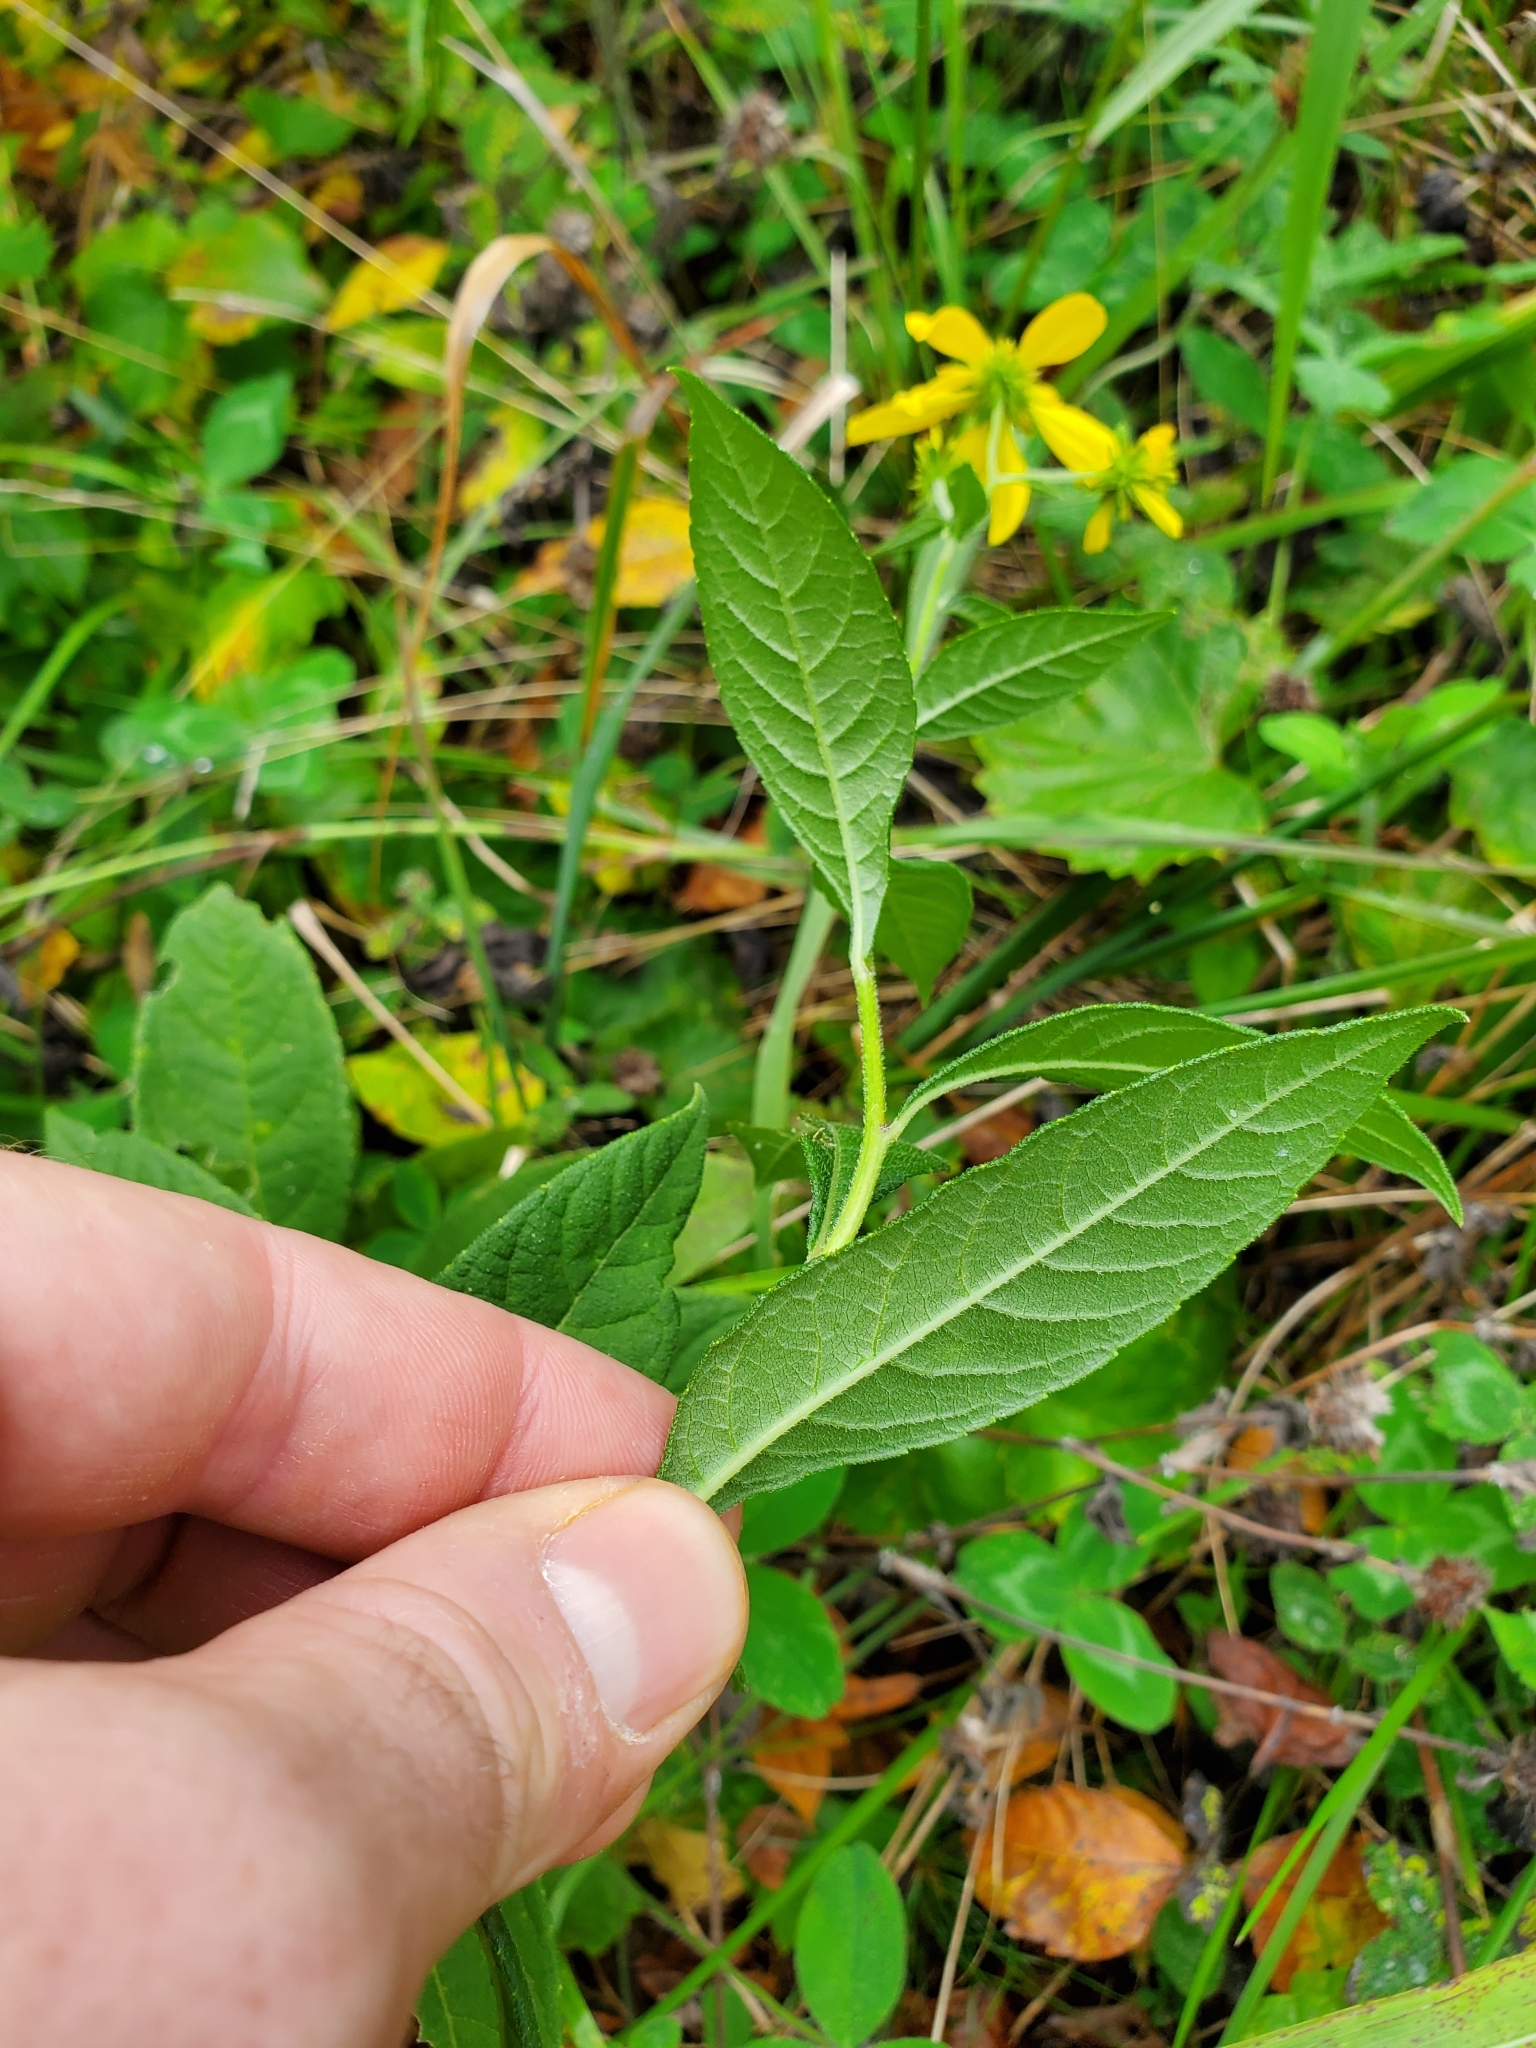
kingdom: Plantae
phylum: Tracheophyta
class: Magnoliopsida
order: Asterales
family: Asteraceae
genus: Verbesina
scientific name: Verbesina alternifolia
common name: Wingstem
